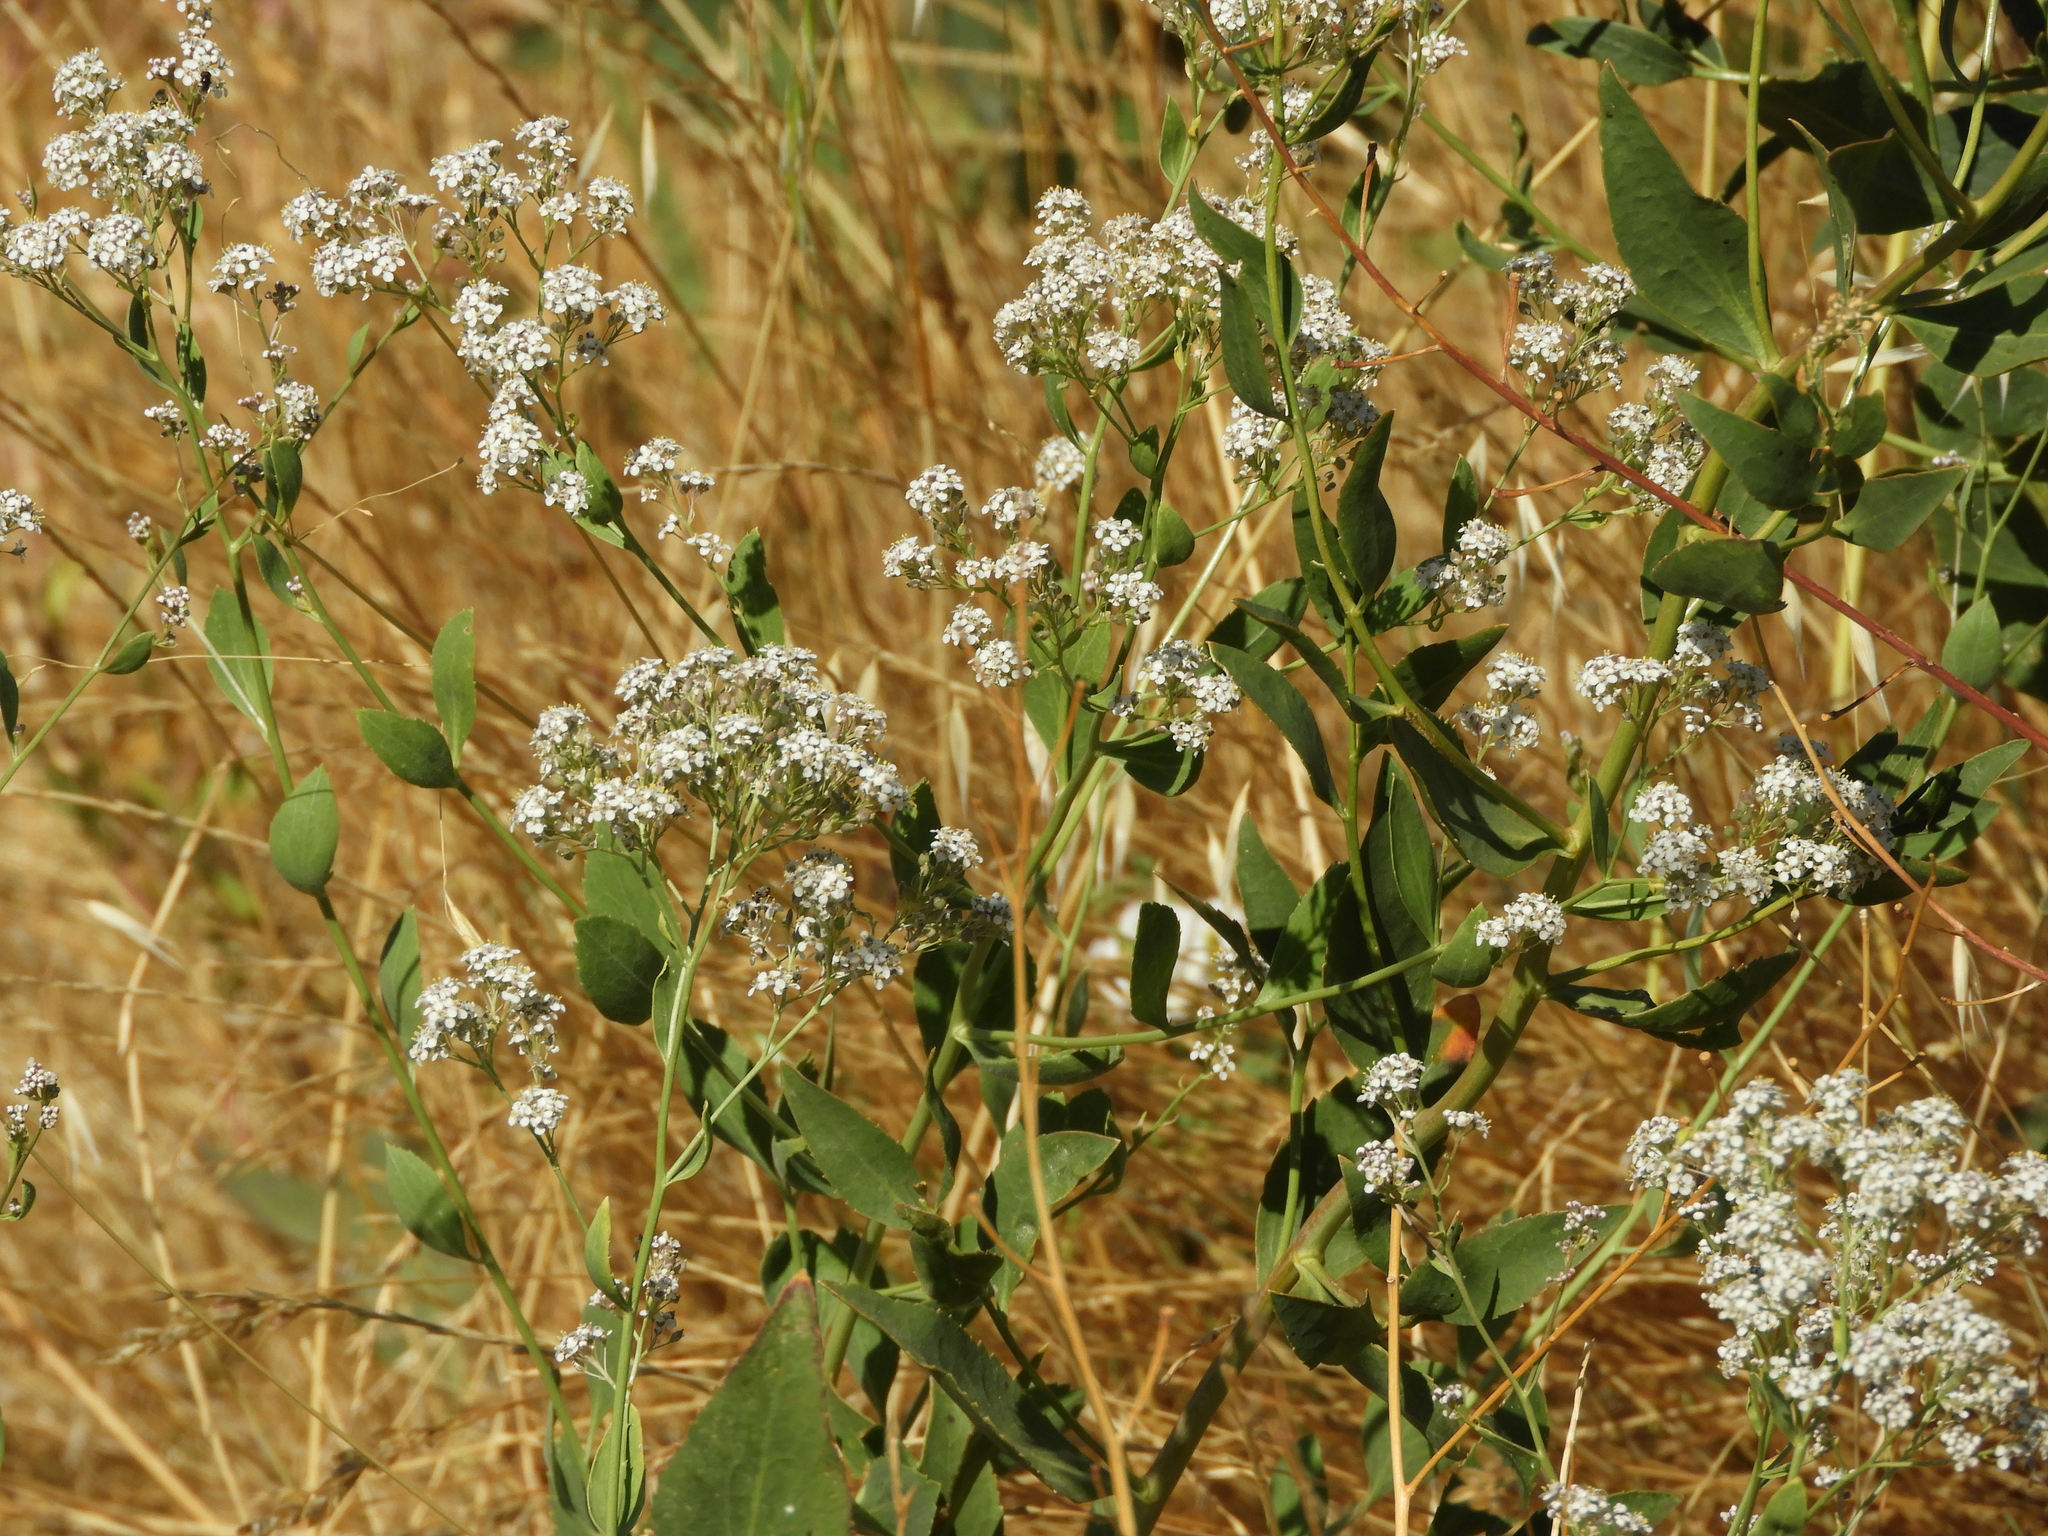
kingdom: Plantae
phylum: Tracheophyta
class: Magnoliopsida
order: Brassicales
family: Brassicaceae
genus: Lepidium
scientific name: Lepidium latifolium
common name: Dittander
